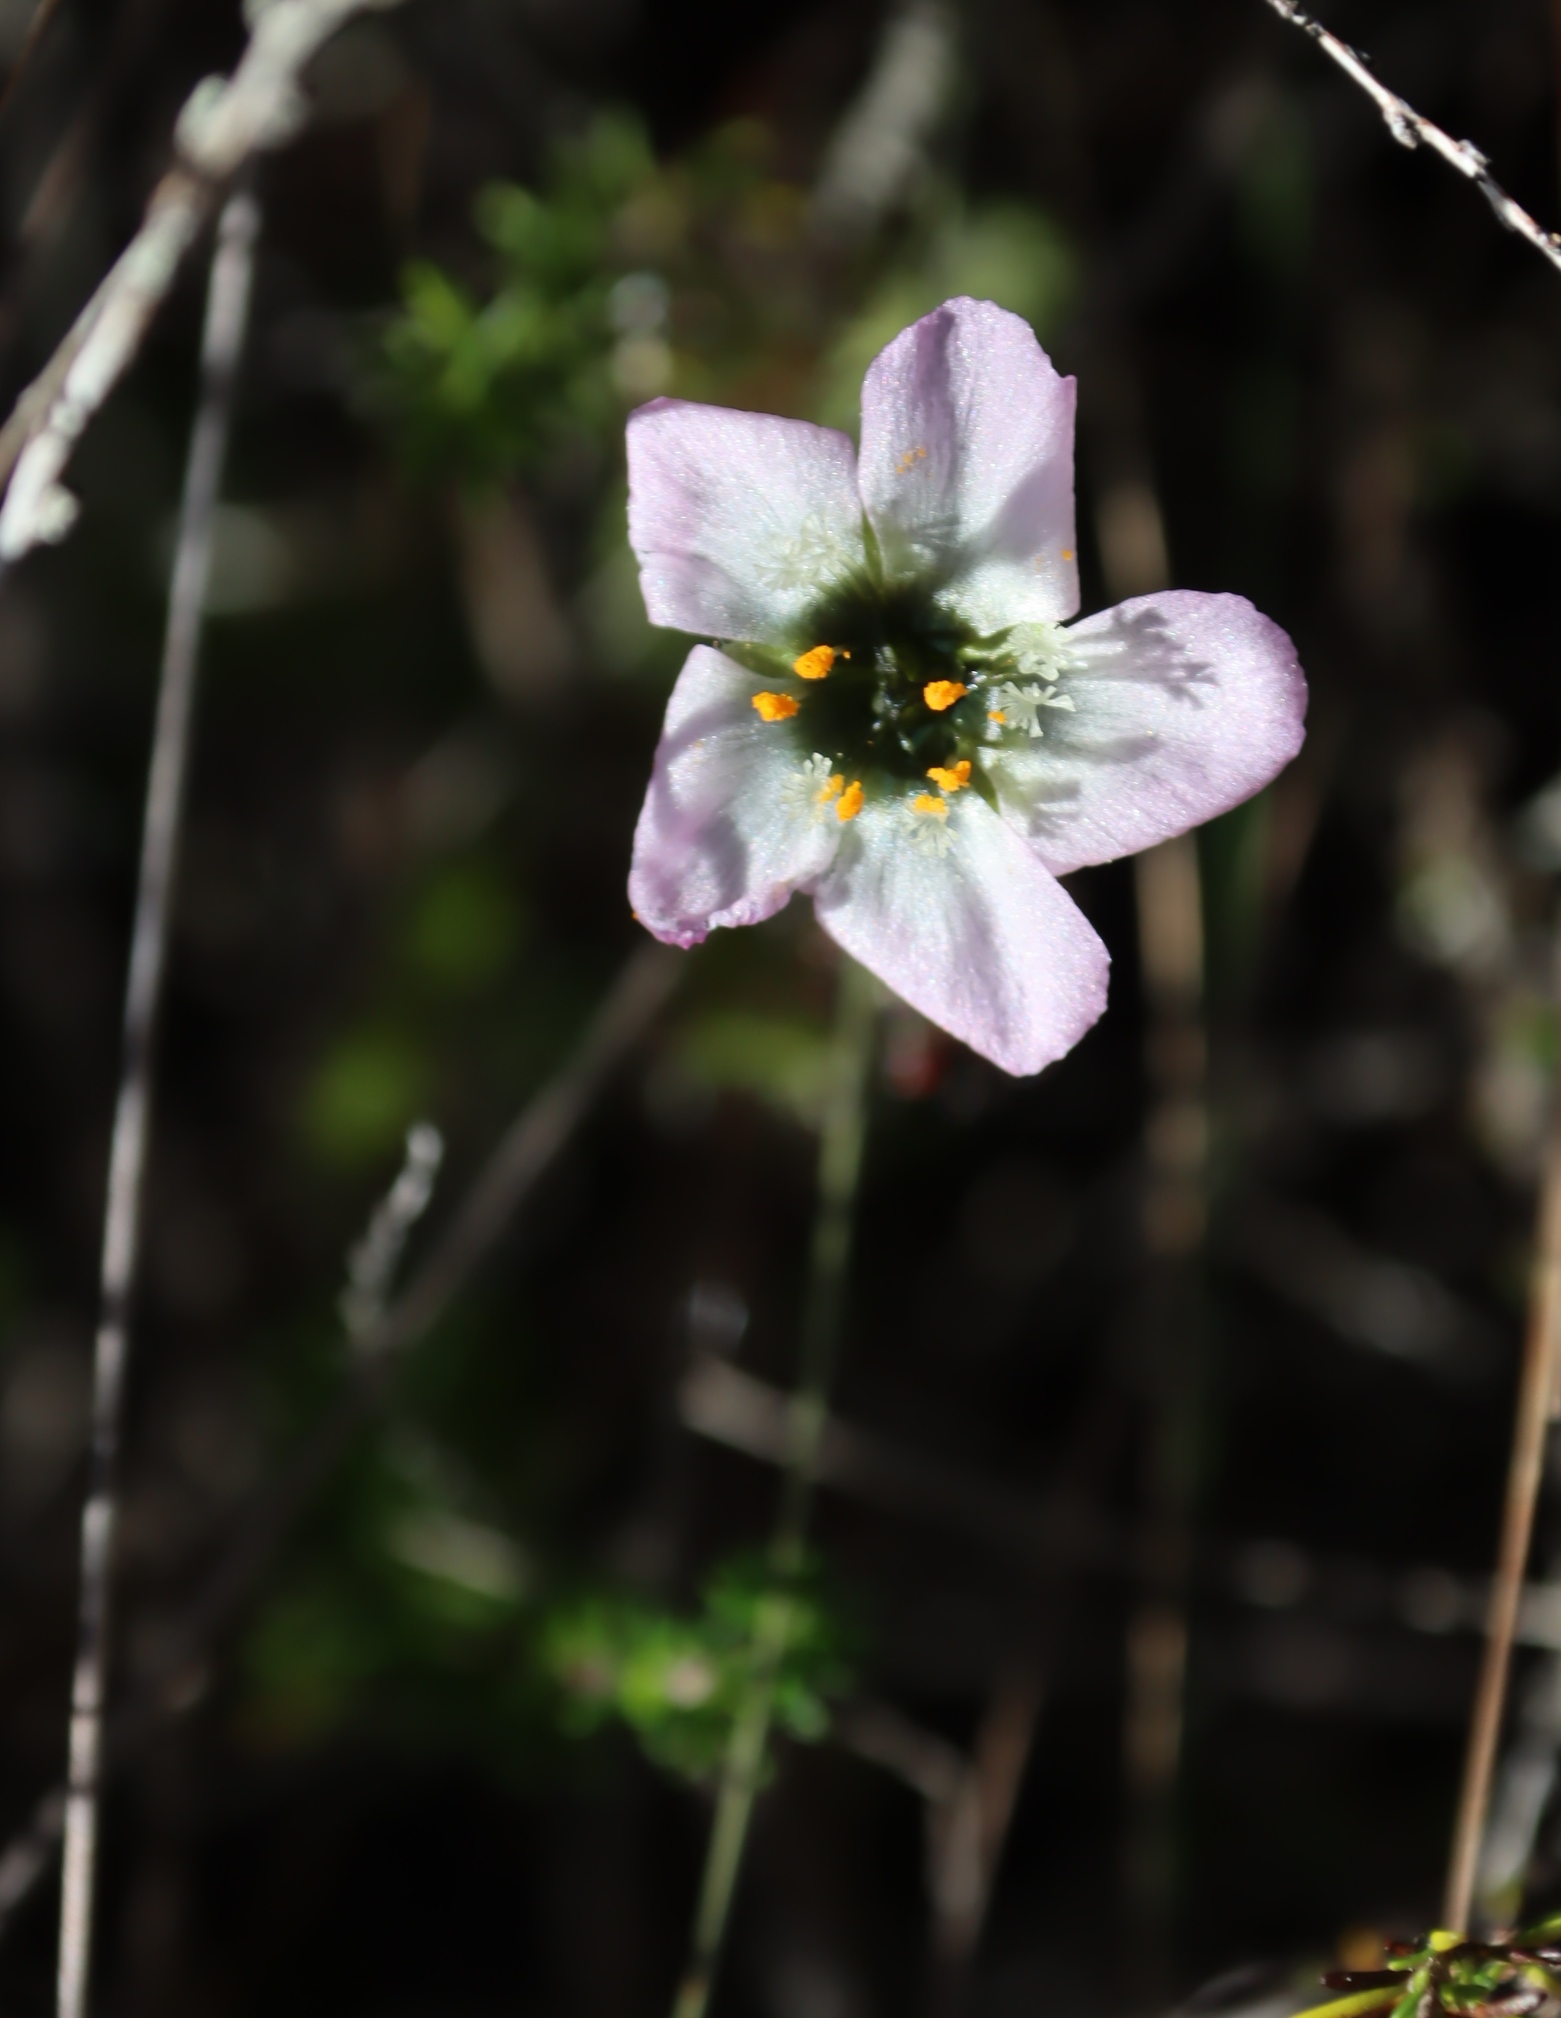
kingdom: Plantae
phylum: Tracheophyta
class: Magnoliopsida
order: Caryophyllales
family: Droseraceae
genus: Drosera
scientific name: Drosera cistiflora
